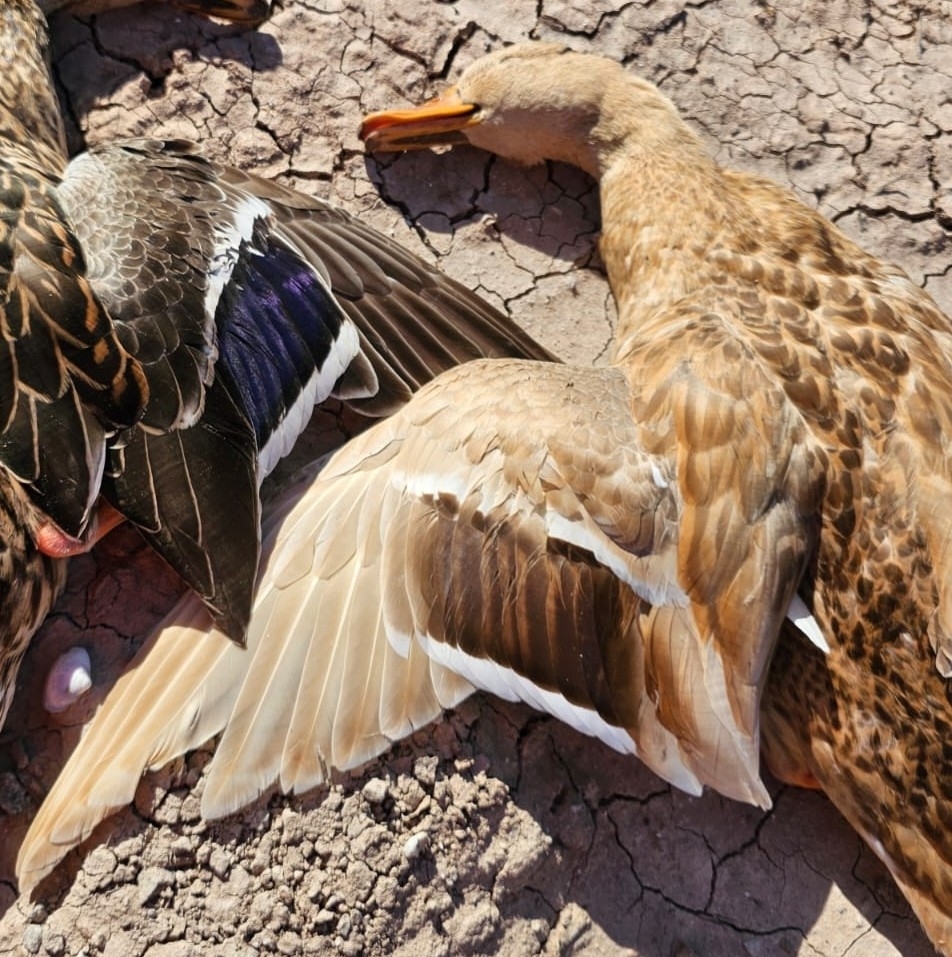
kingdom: Animalia
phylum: Chordata
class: Aves
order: Anseriformes
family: Anatidae
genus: Anas
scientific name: Anas platyrhynchos
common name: Mallard
